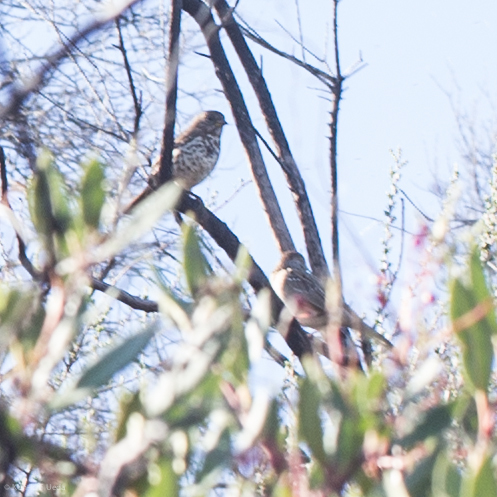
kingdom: Animalia
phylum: Chordata
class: Aves
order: Passeriformes
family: Passerellidae
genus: Passerella
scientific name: Passerella iliaca
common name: Fox sparrow
